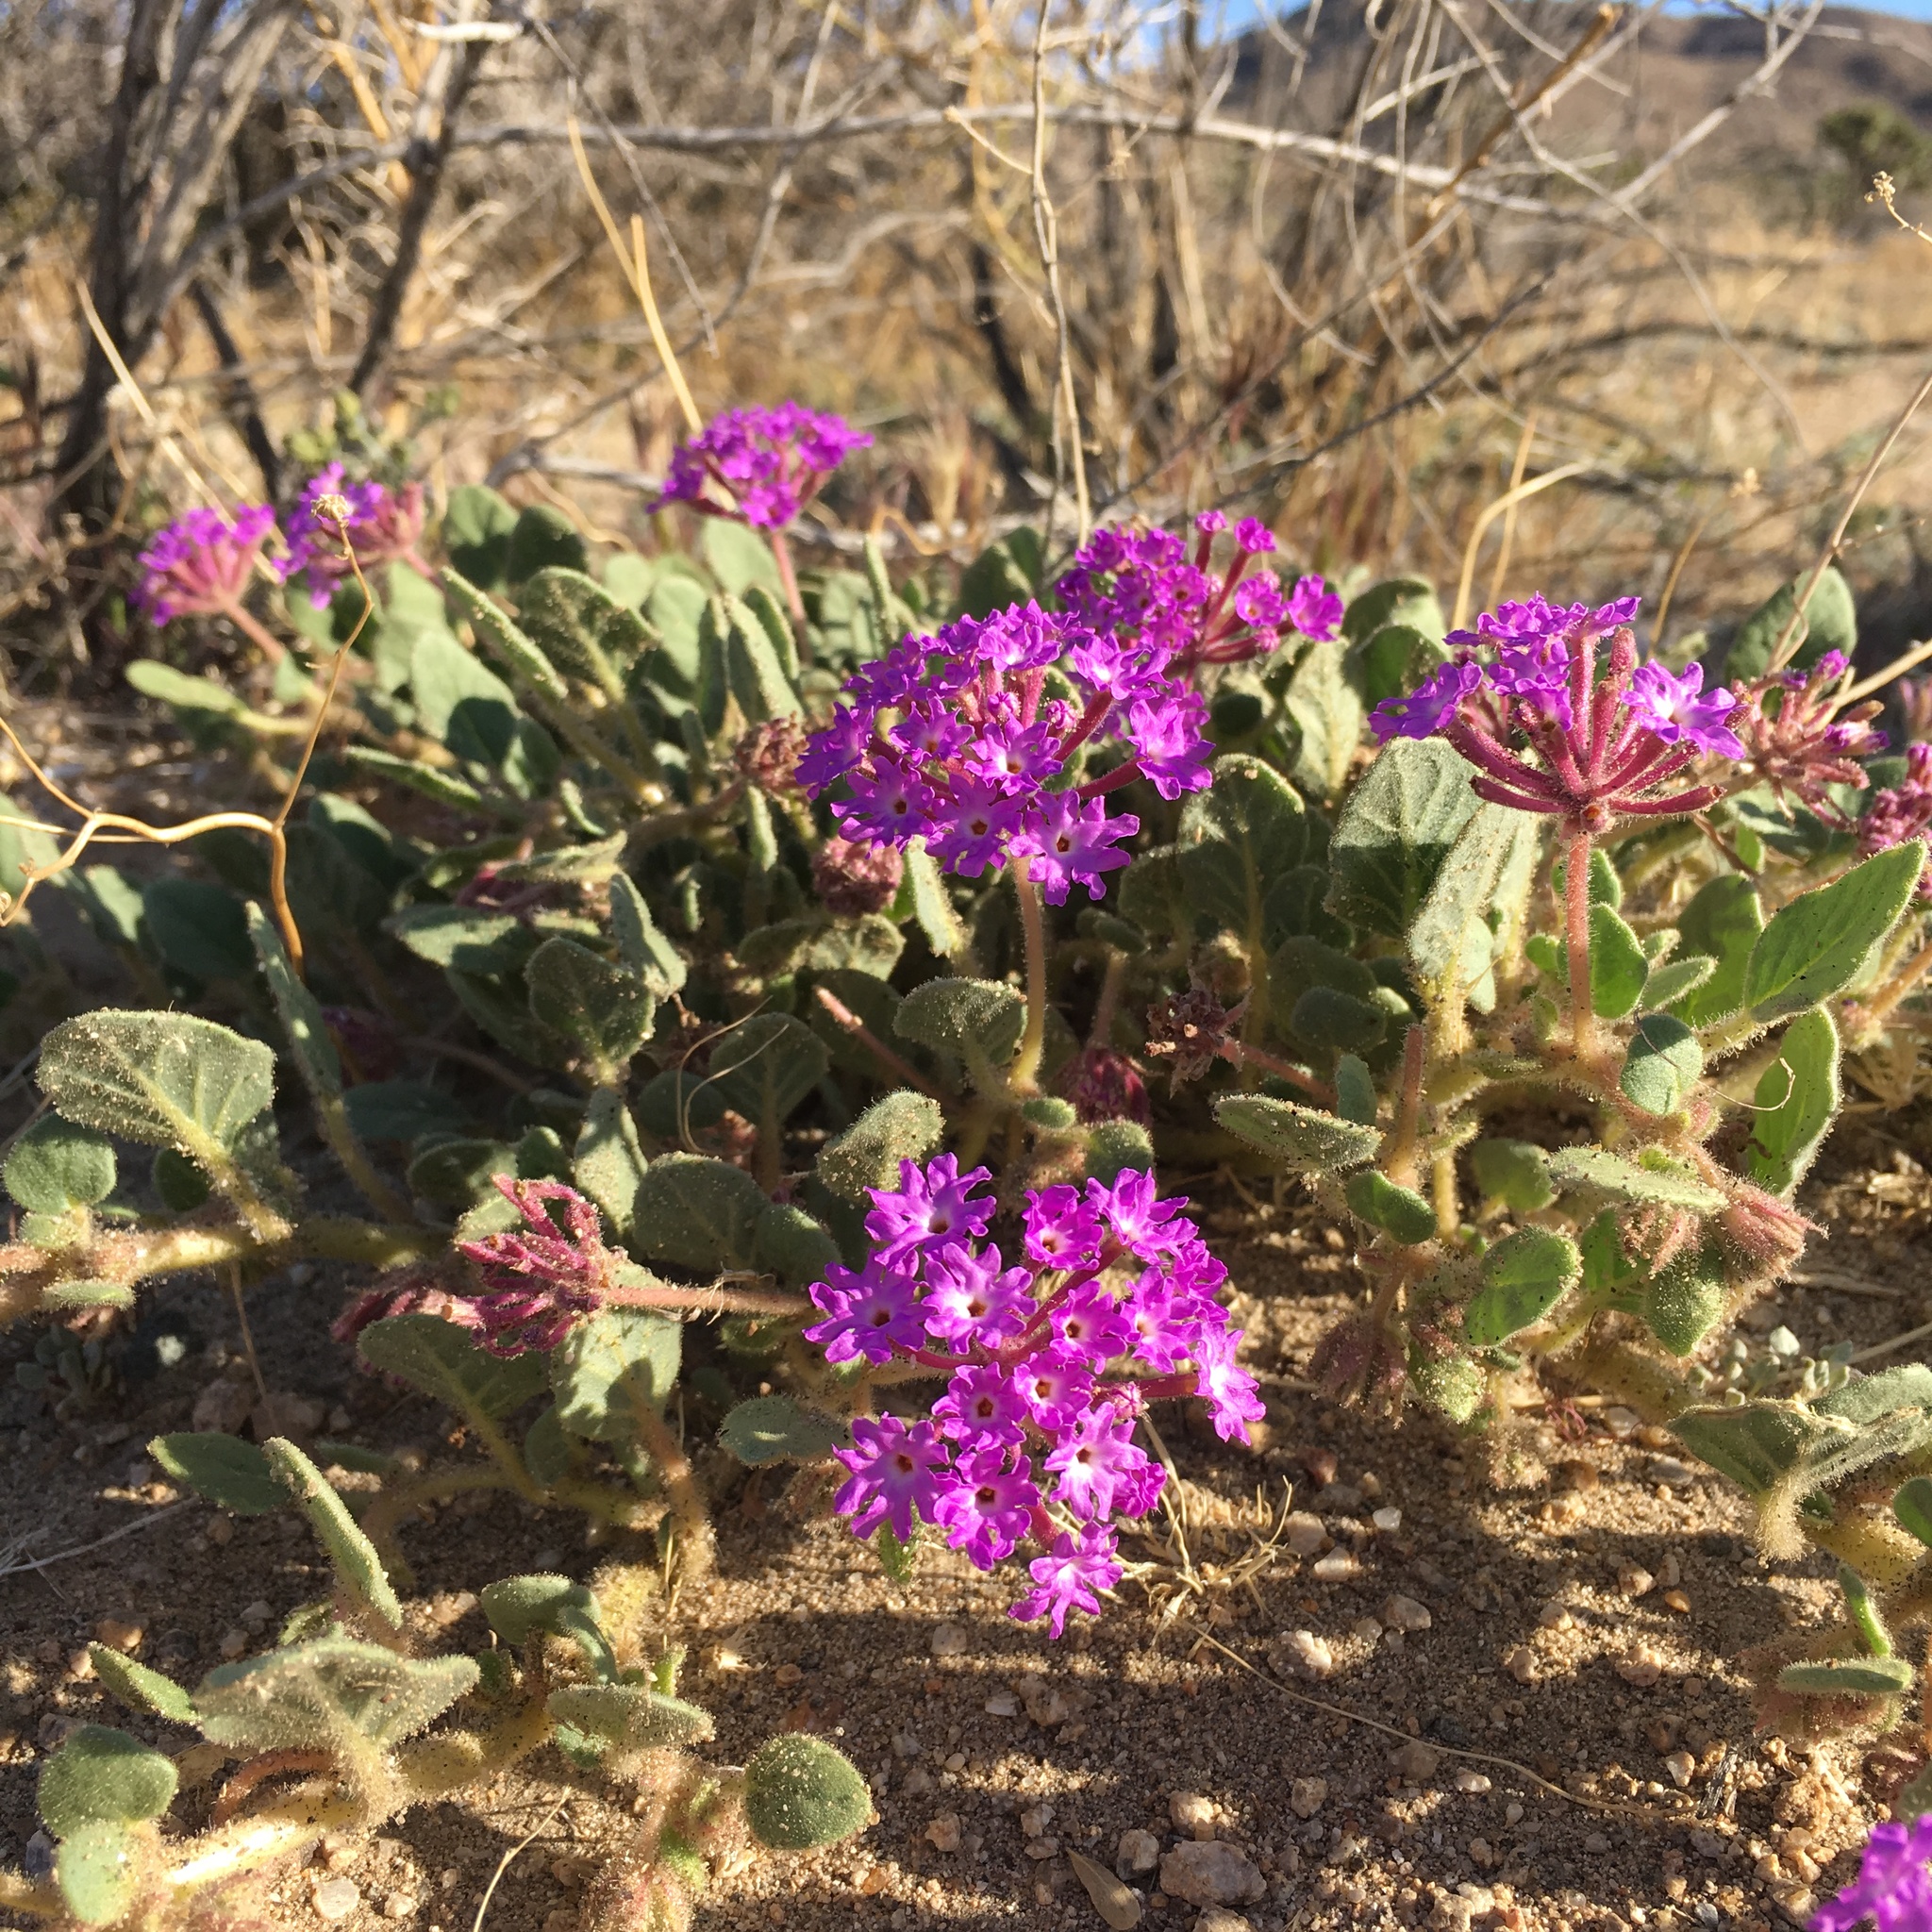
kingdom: Plantae
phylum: Tracheophyta
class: Magnoliopsida
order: Caryophyllales
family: Nyctaginaceae
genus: Abronia
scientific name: Abronia villosa
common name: Desert sand-verbena
